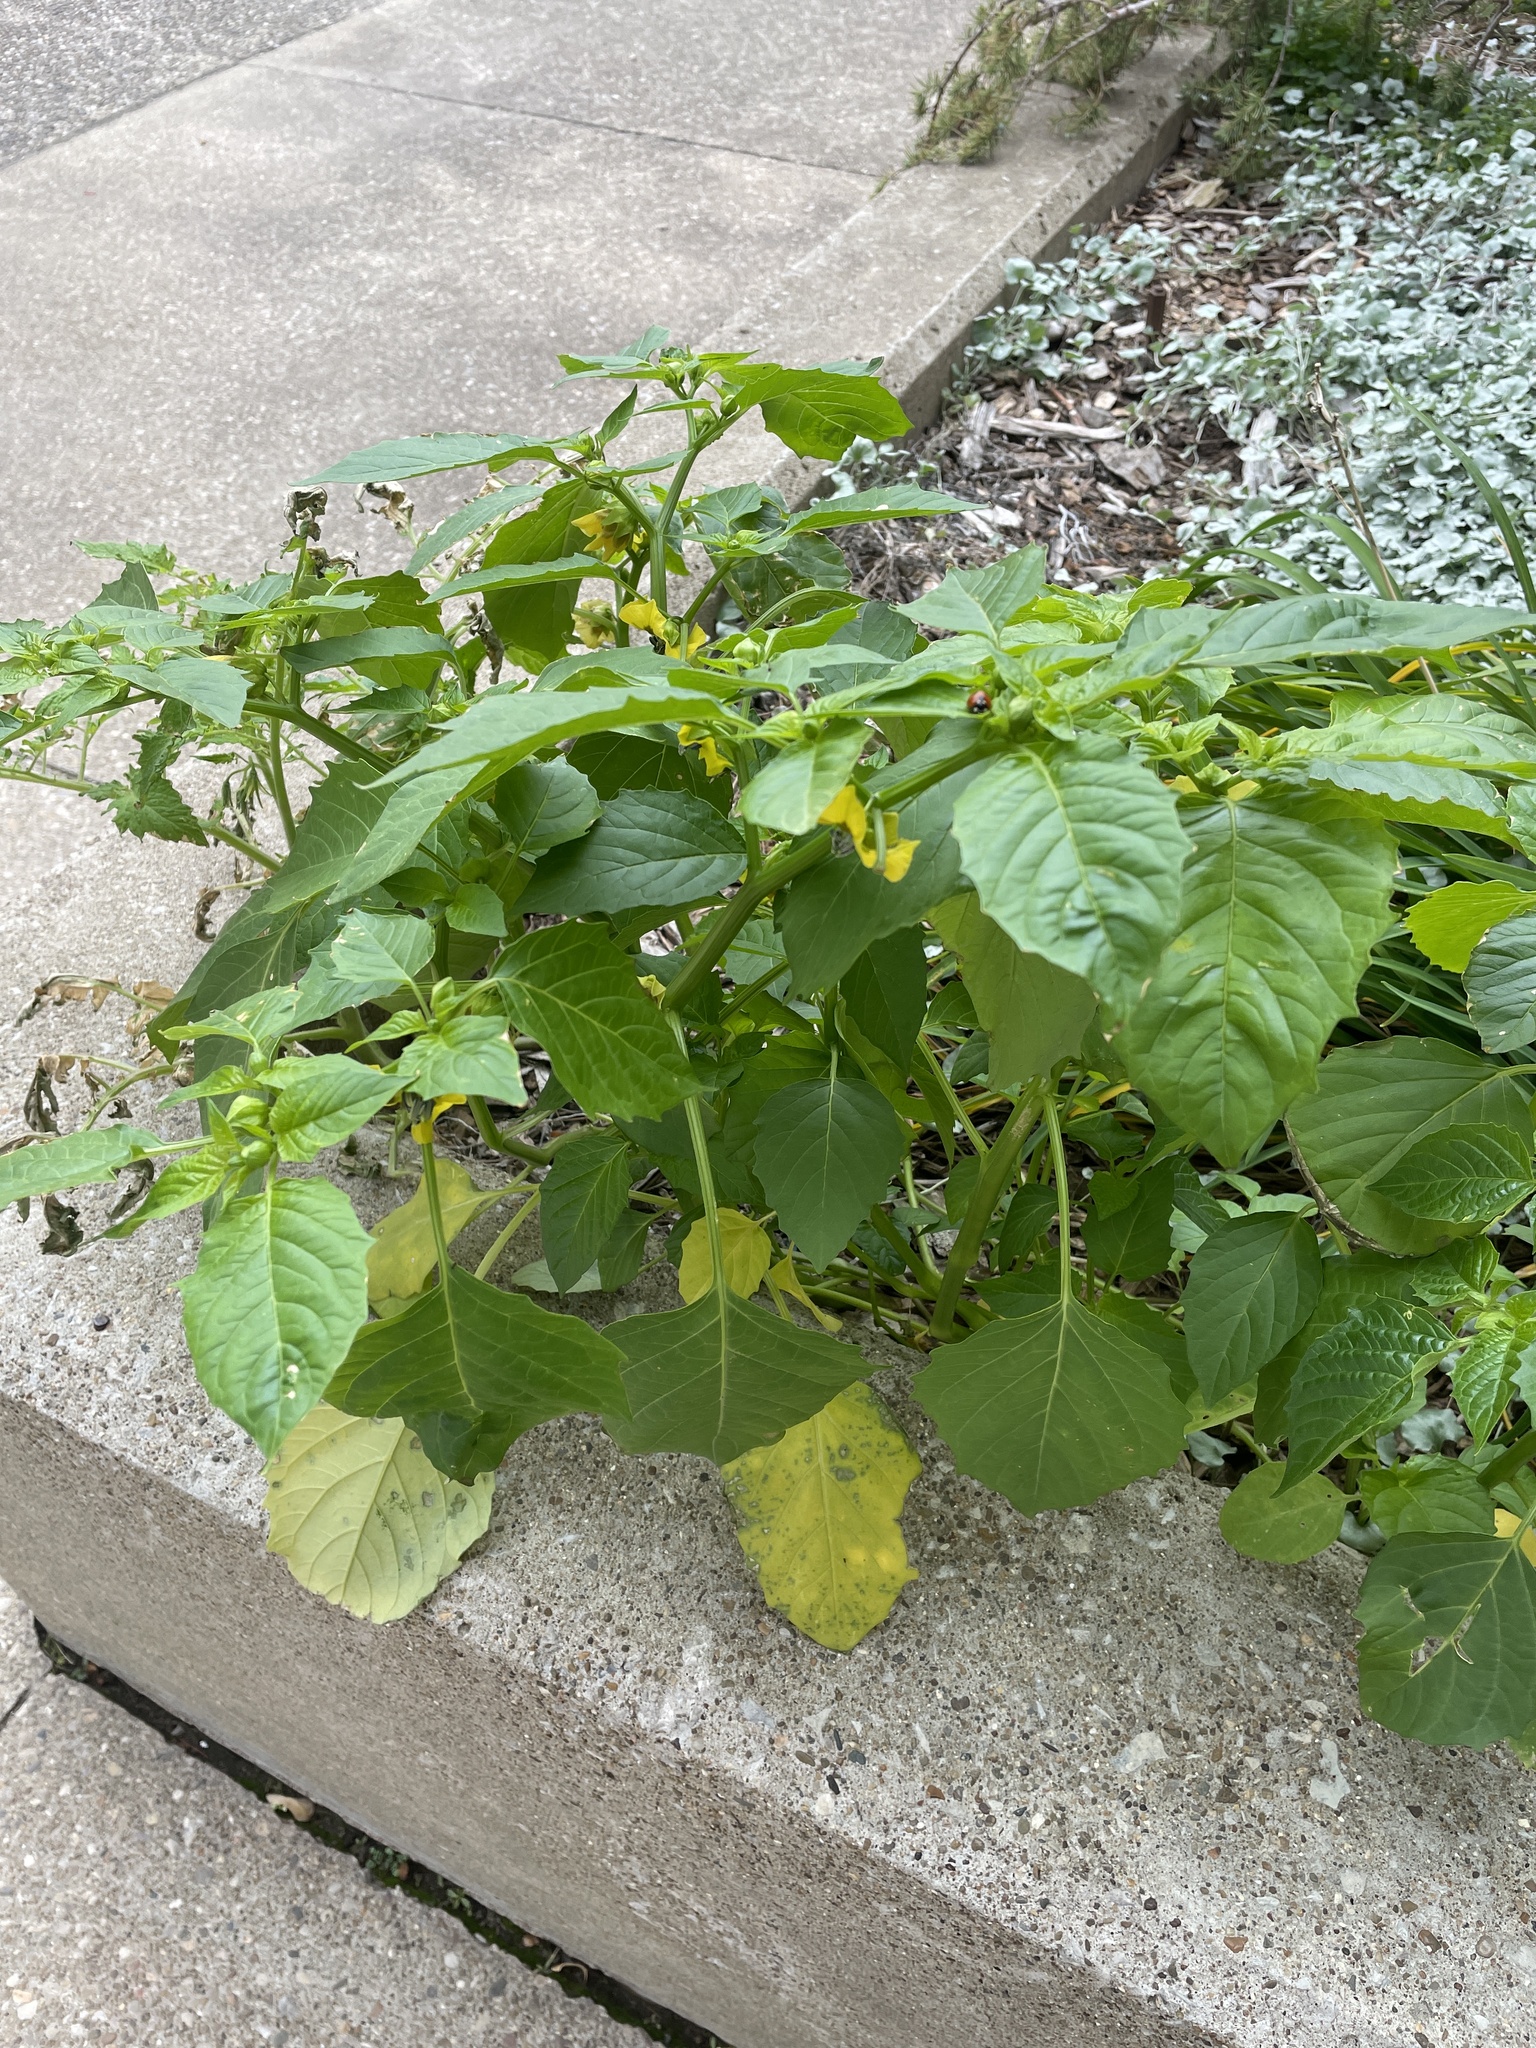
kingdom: Plantae
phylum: Tracheophyta
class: Magnoliopsida
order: Solanales
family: Solanaceae
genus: Physalis
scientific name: Physalis philadelphica
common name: Husk-tomato
